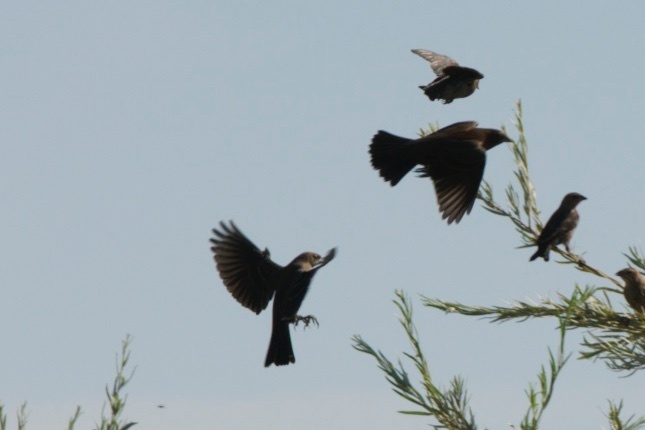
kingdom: Animalia
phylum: Chordata
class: Aves
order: Passeriformes
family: Icteridae
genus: Molothrus
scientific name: Molothrus ater
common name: Brown-headed cowbird
